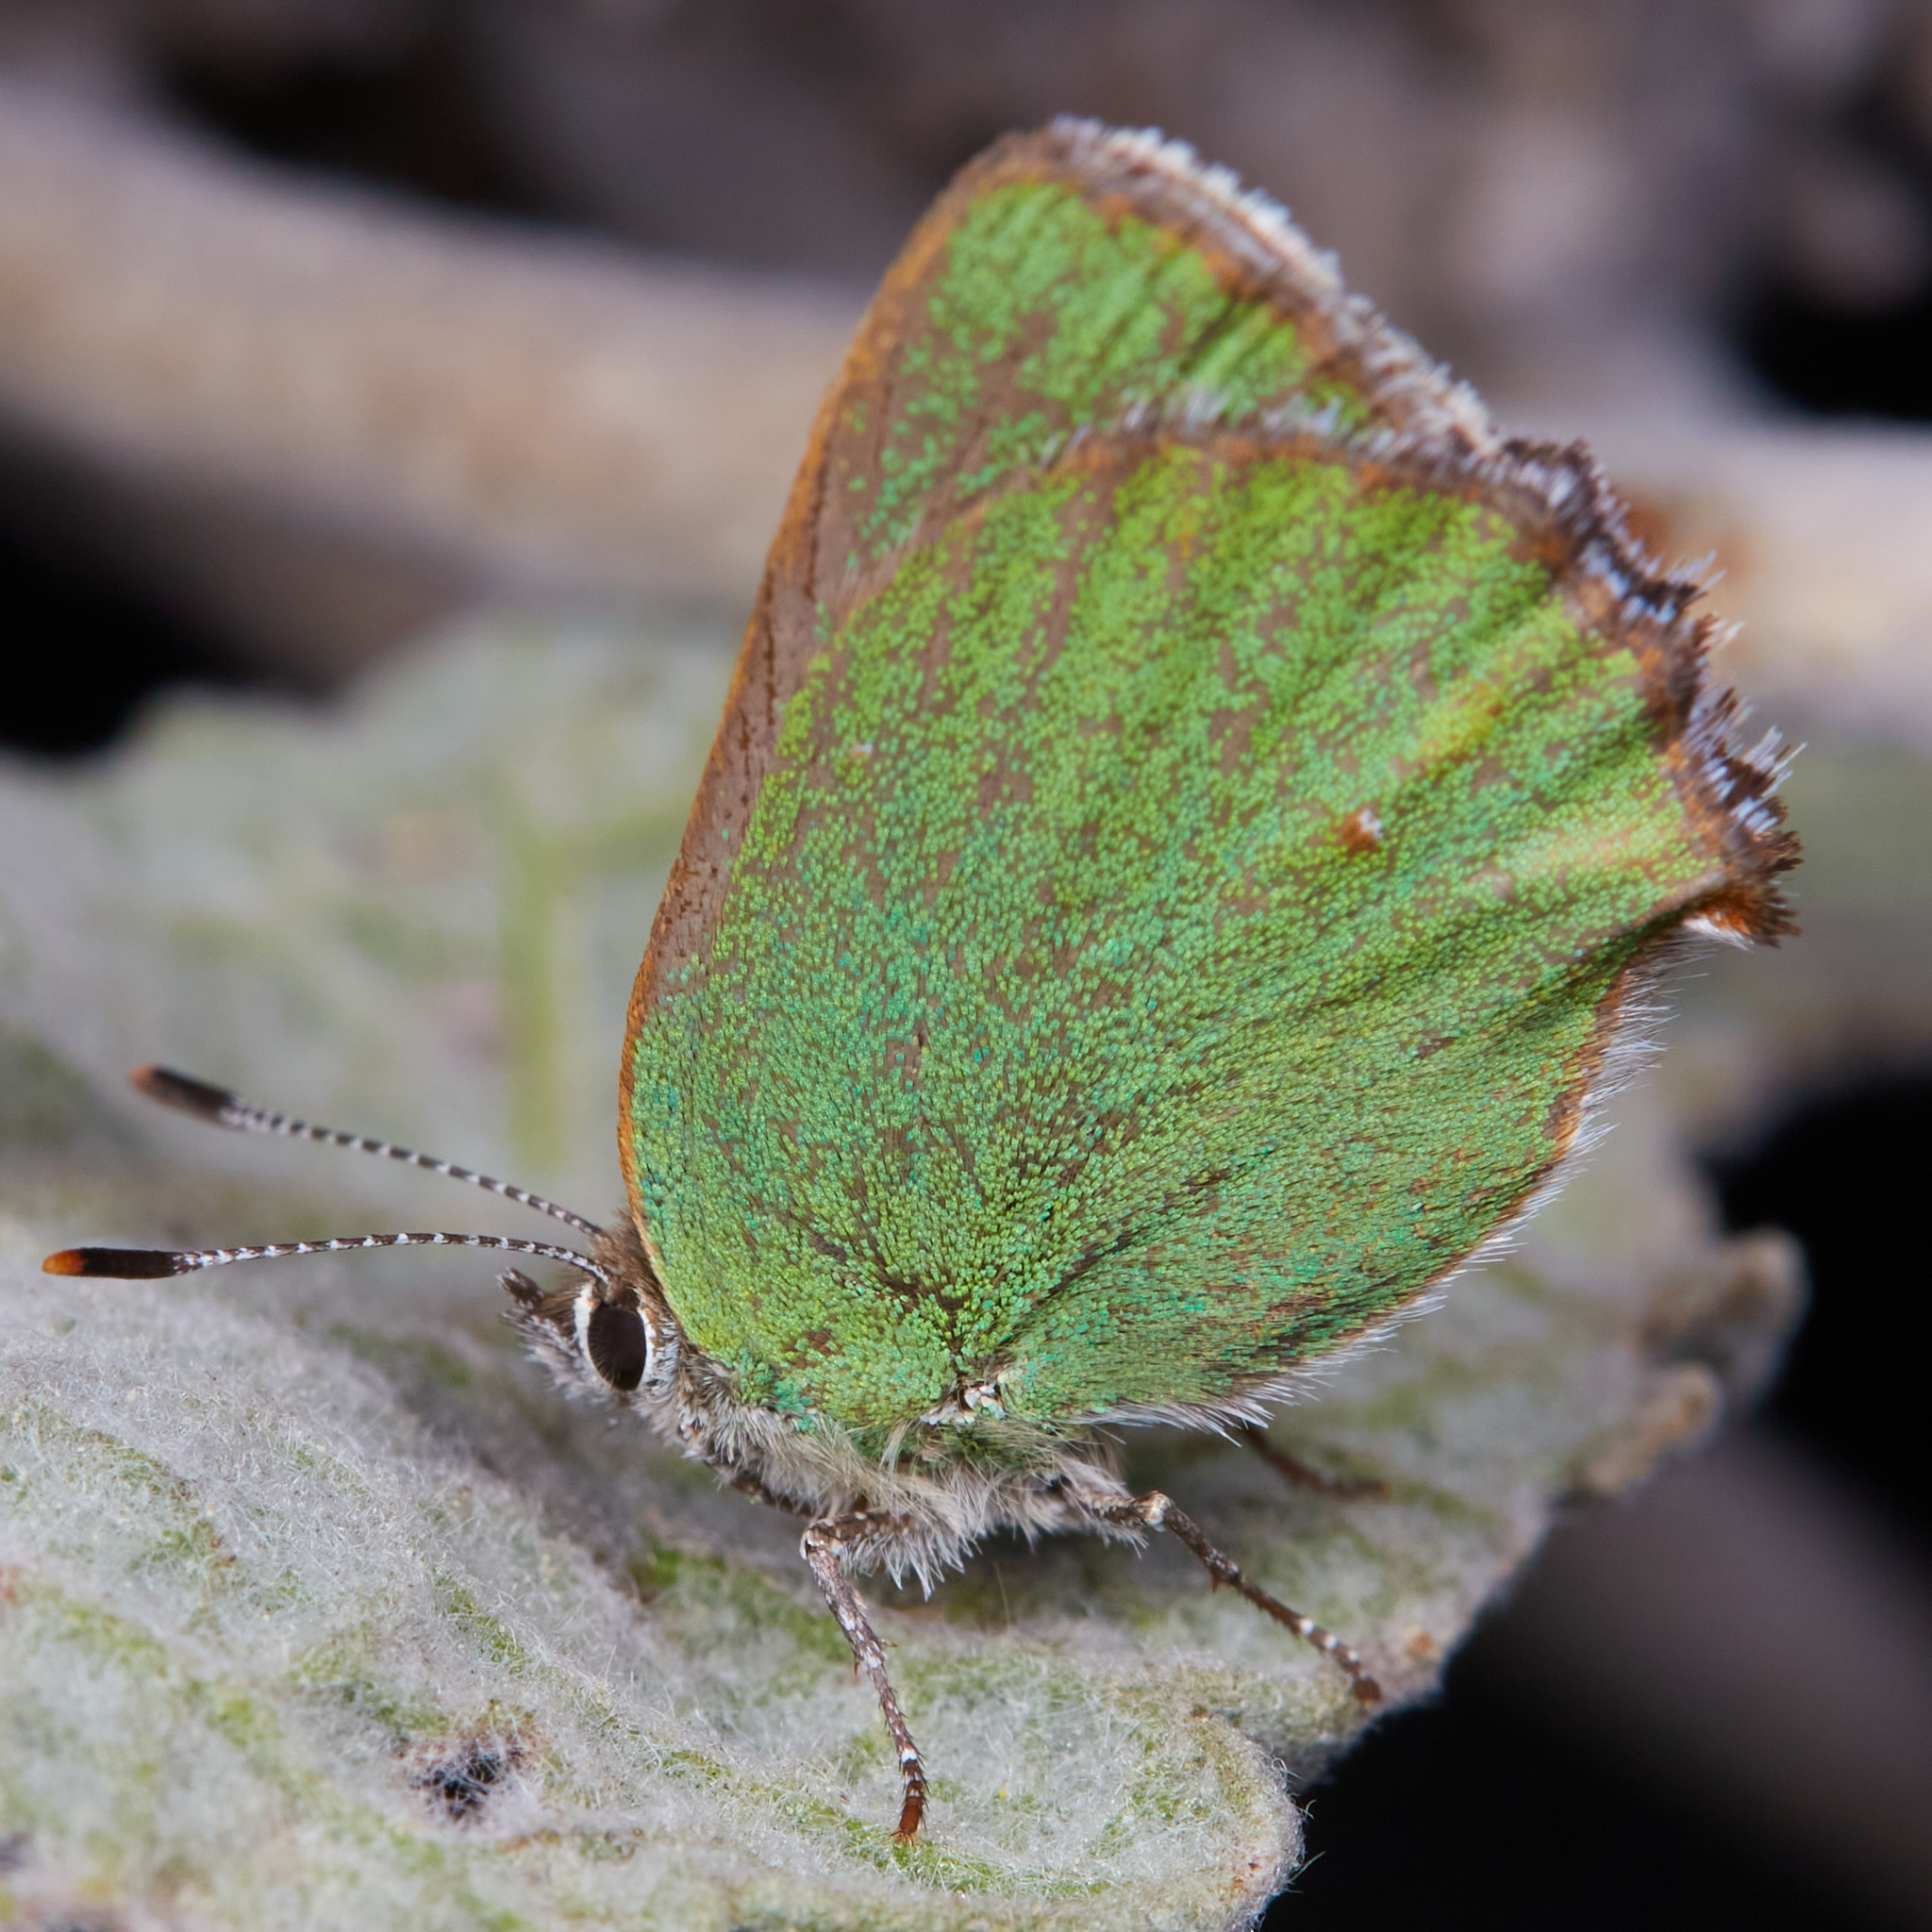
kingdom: Animalia
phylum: Arthropoda
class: Insecta
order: Lepidoptera
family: Lycaenidae
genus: Callophrys
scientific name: Callophrys dumetorum
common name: Bramble hairstreak
